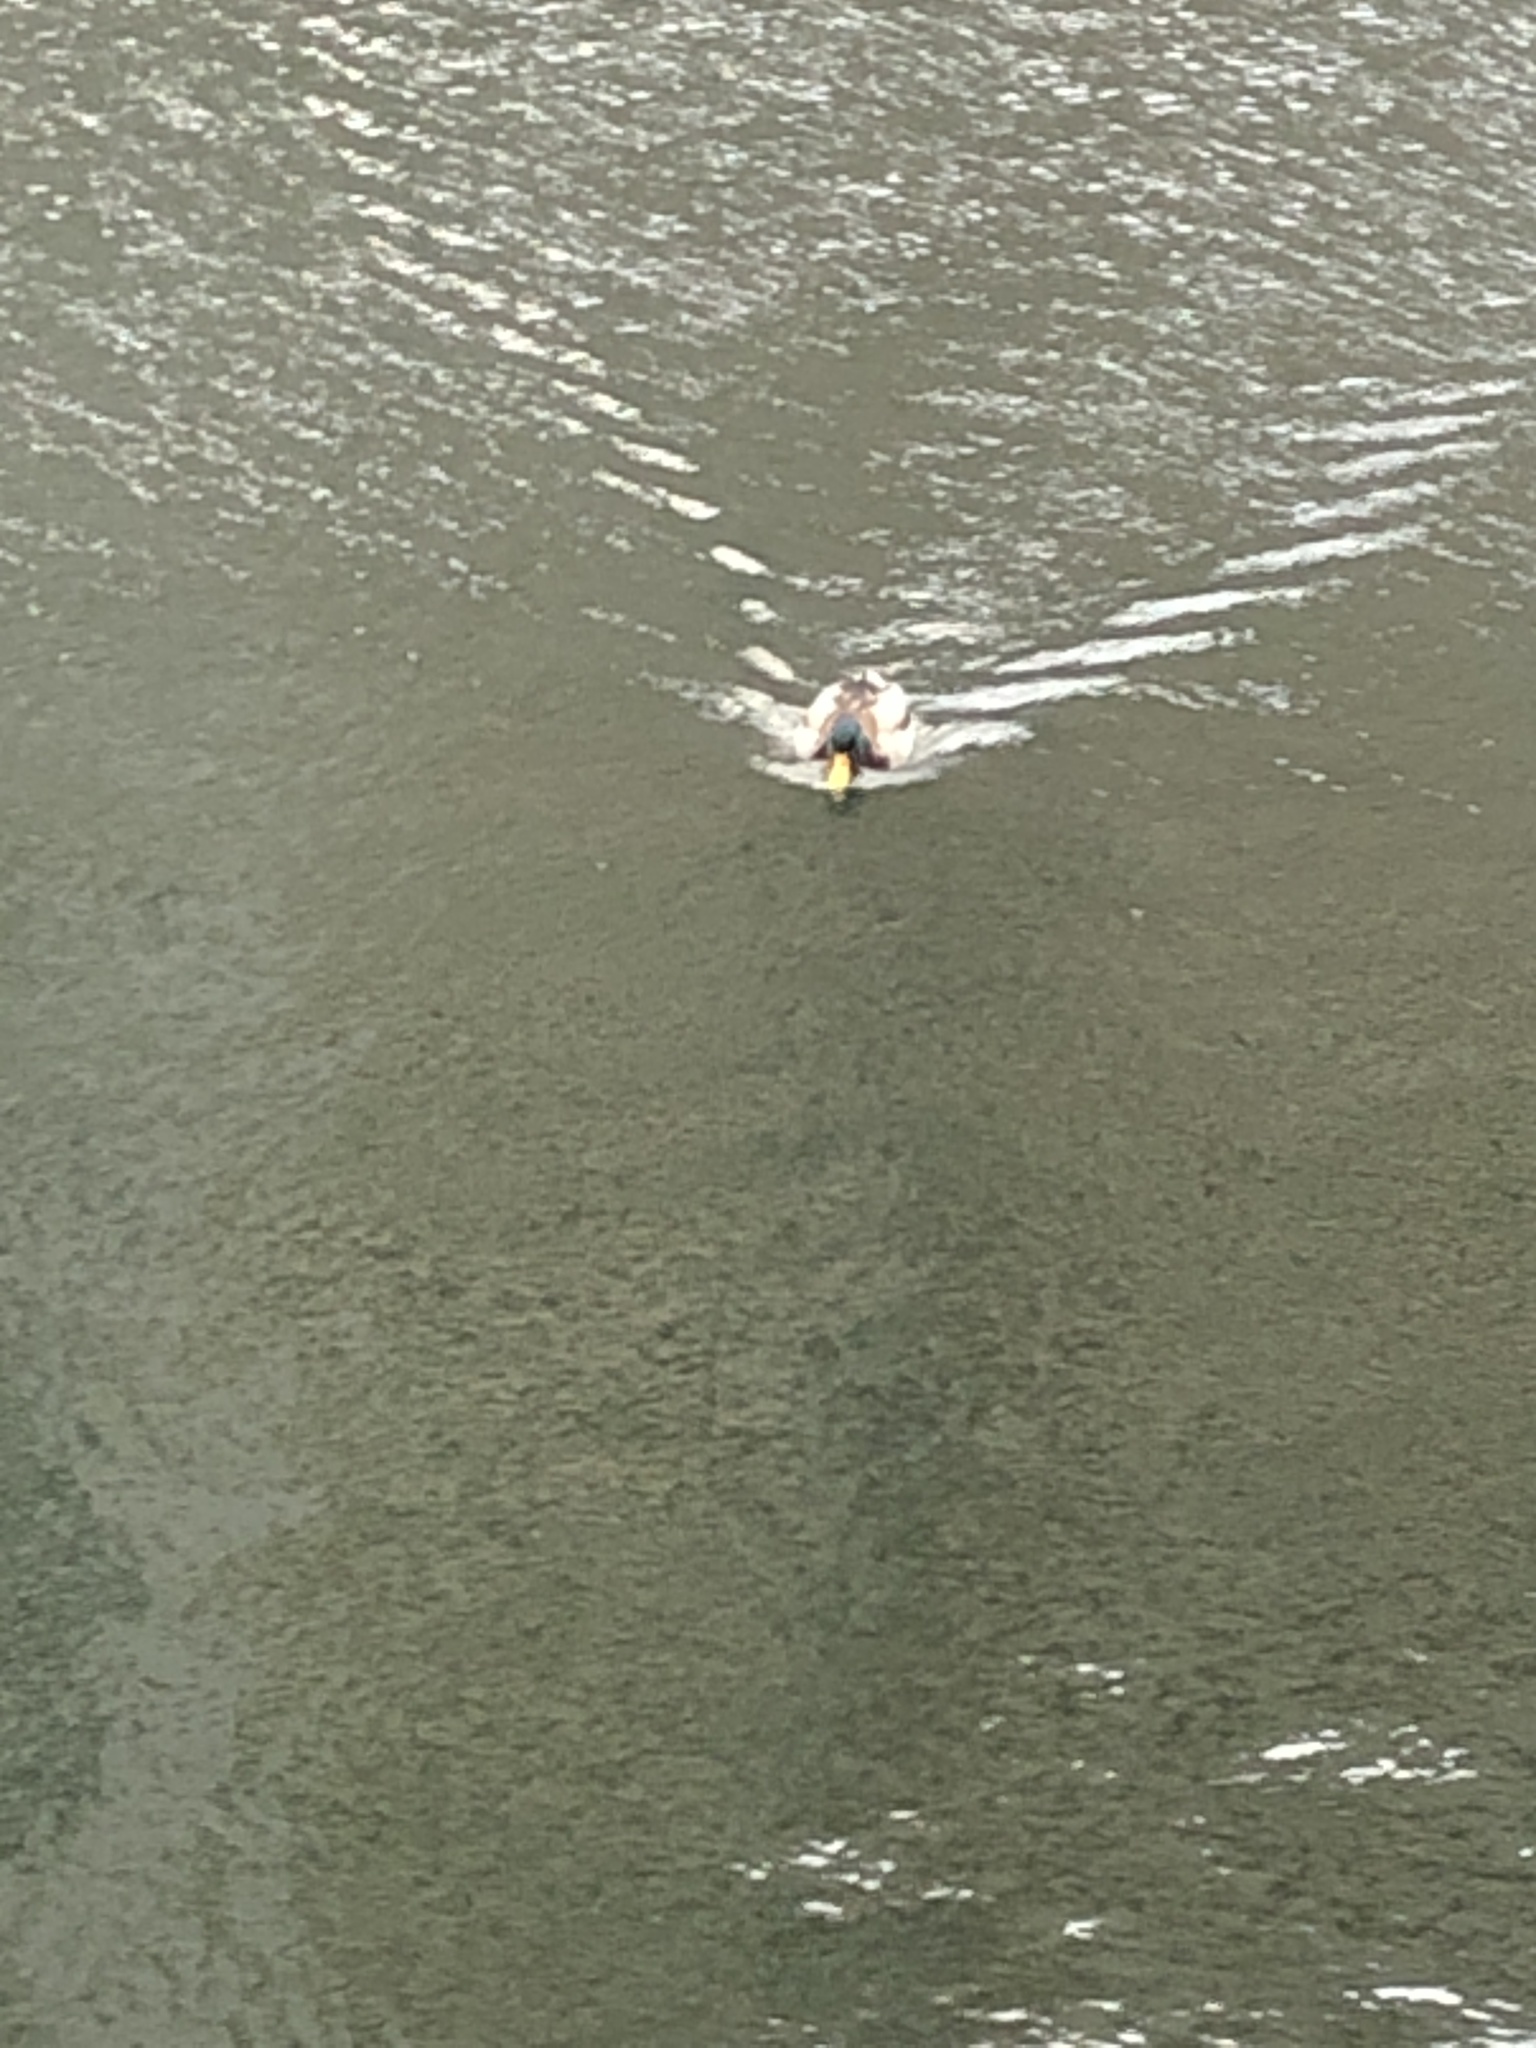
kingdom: Animalia
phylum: Chordata
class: Aves
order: Anseriformes
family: Anatidae
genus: Anas
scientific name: Anas platyrhynchos
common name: Mallard
